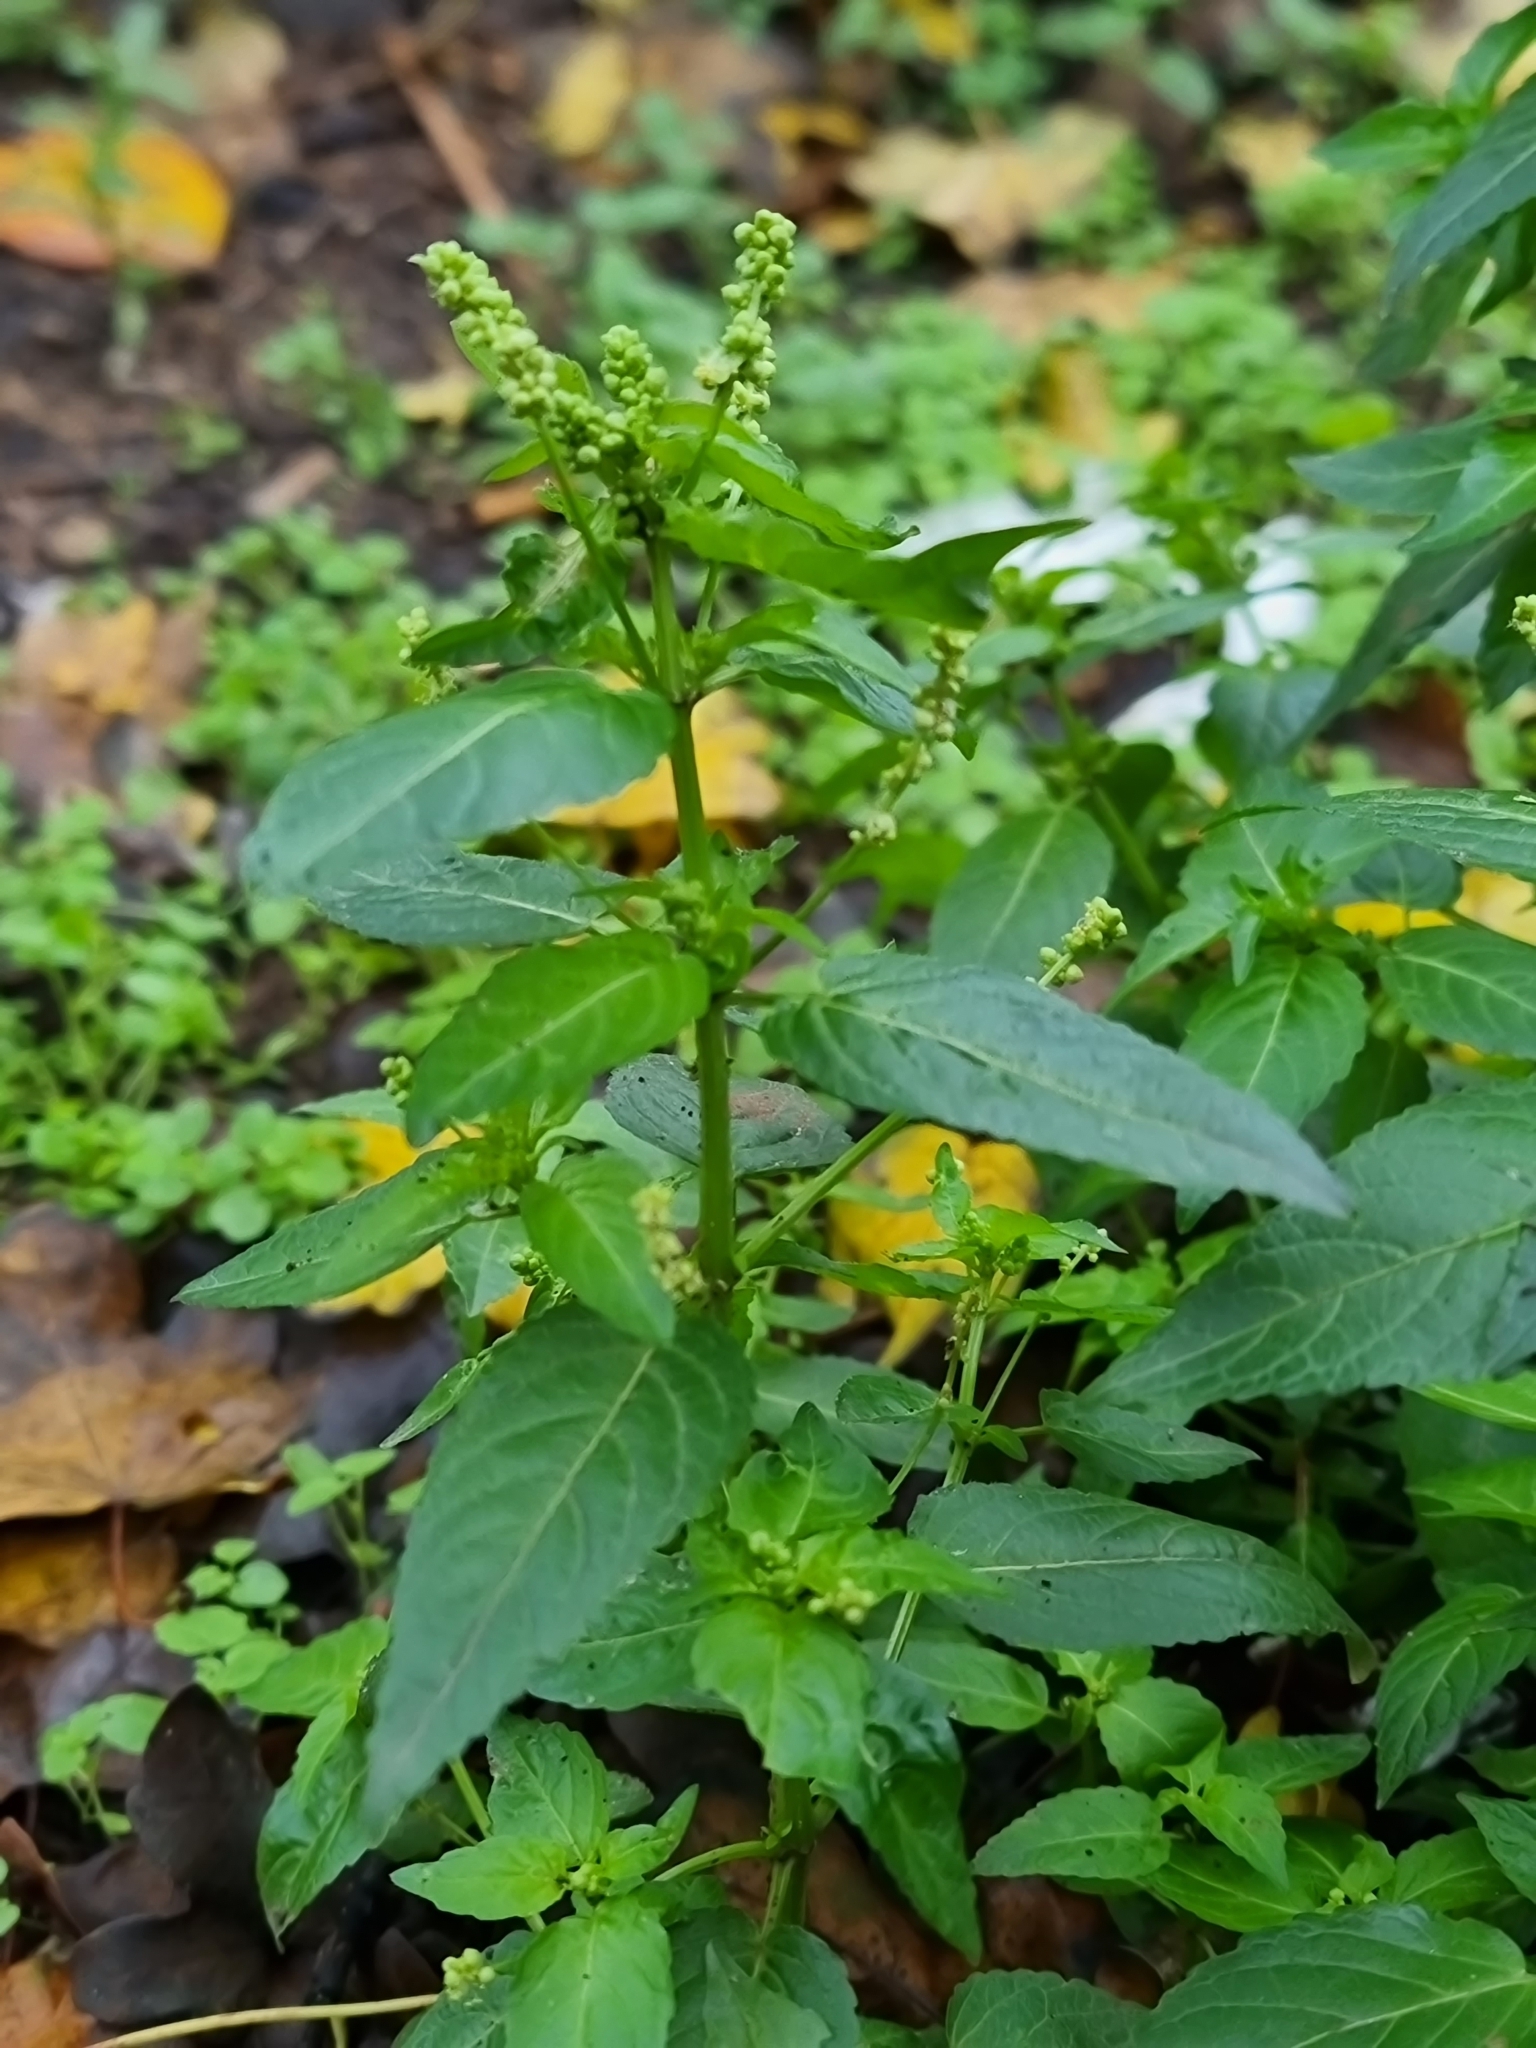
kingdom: Plantae
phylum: Tracheophyta
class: Magnoliopsida
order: Malpighiales
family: Euphorbiaceae
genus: Mercurialis
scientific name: Mercurialis annua
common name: Annual mercury
